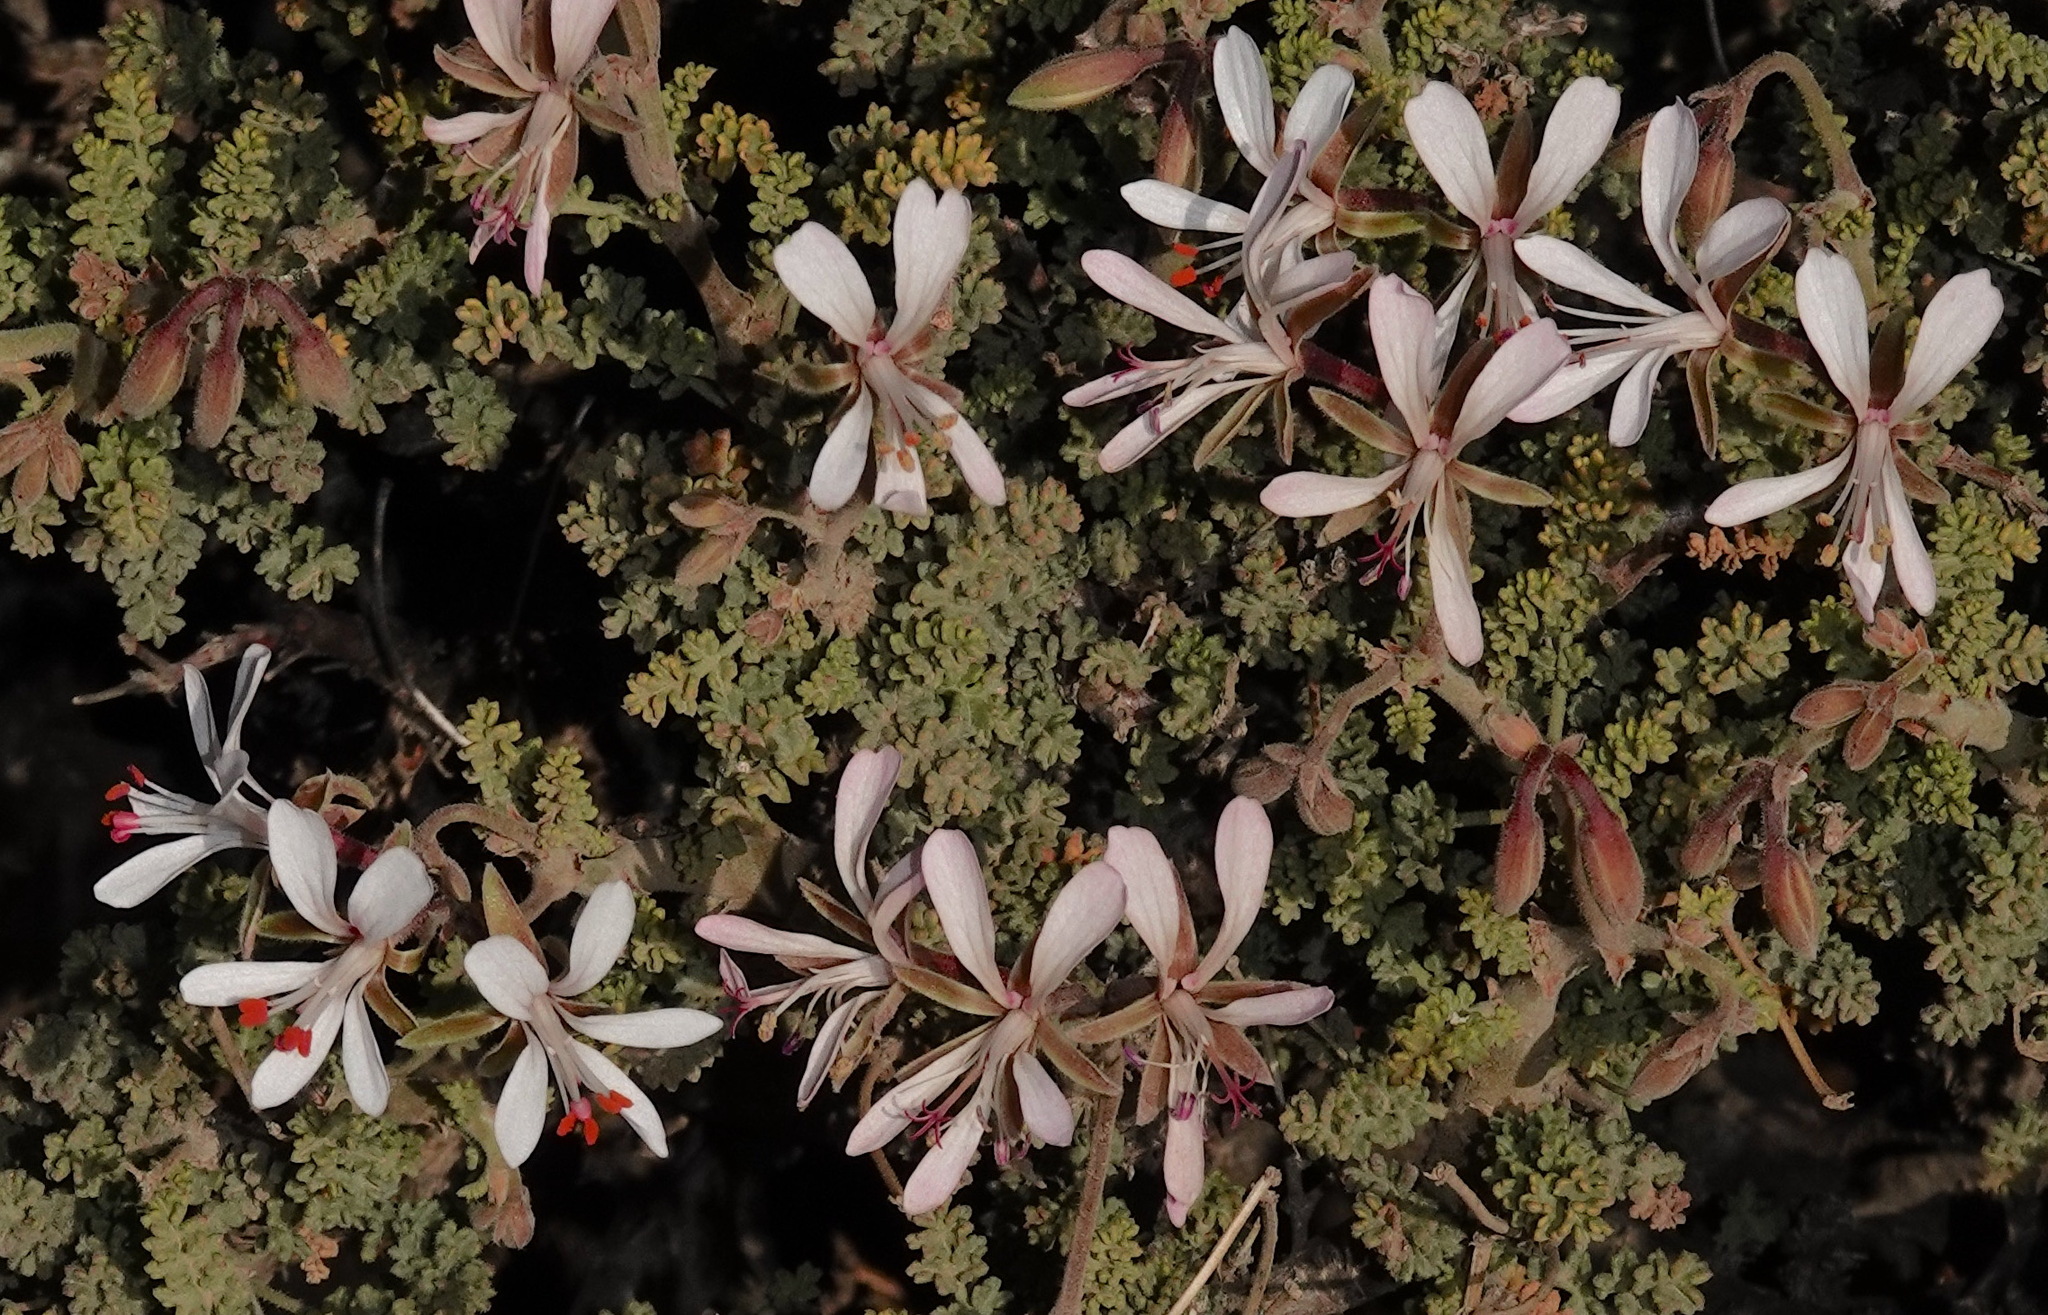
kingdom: Plantae
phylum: Tracheophyta
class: Magnoliopsida
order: Geraniales
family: Geraniaceae
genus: Pelargonium
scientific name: Pelargonium alternans
